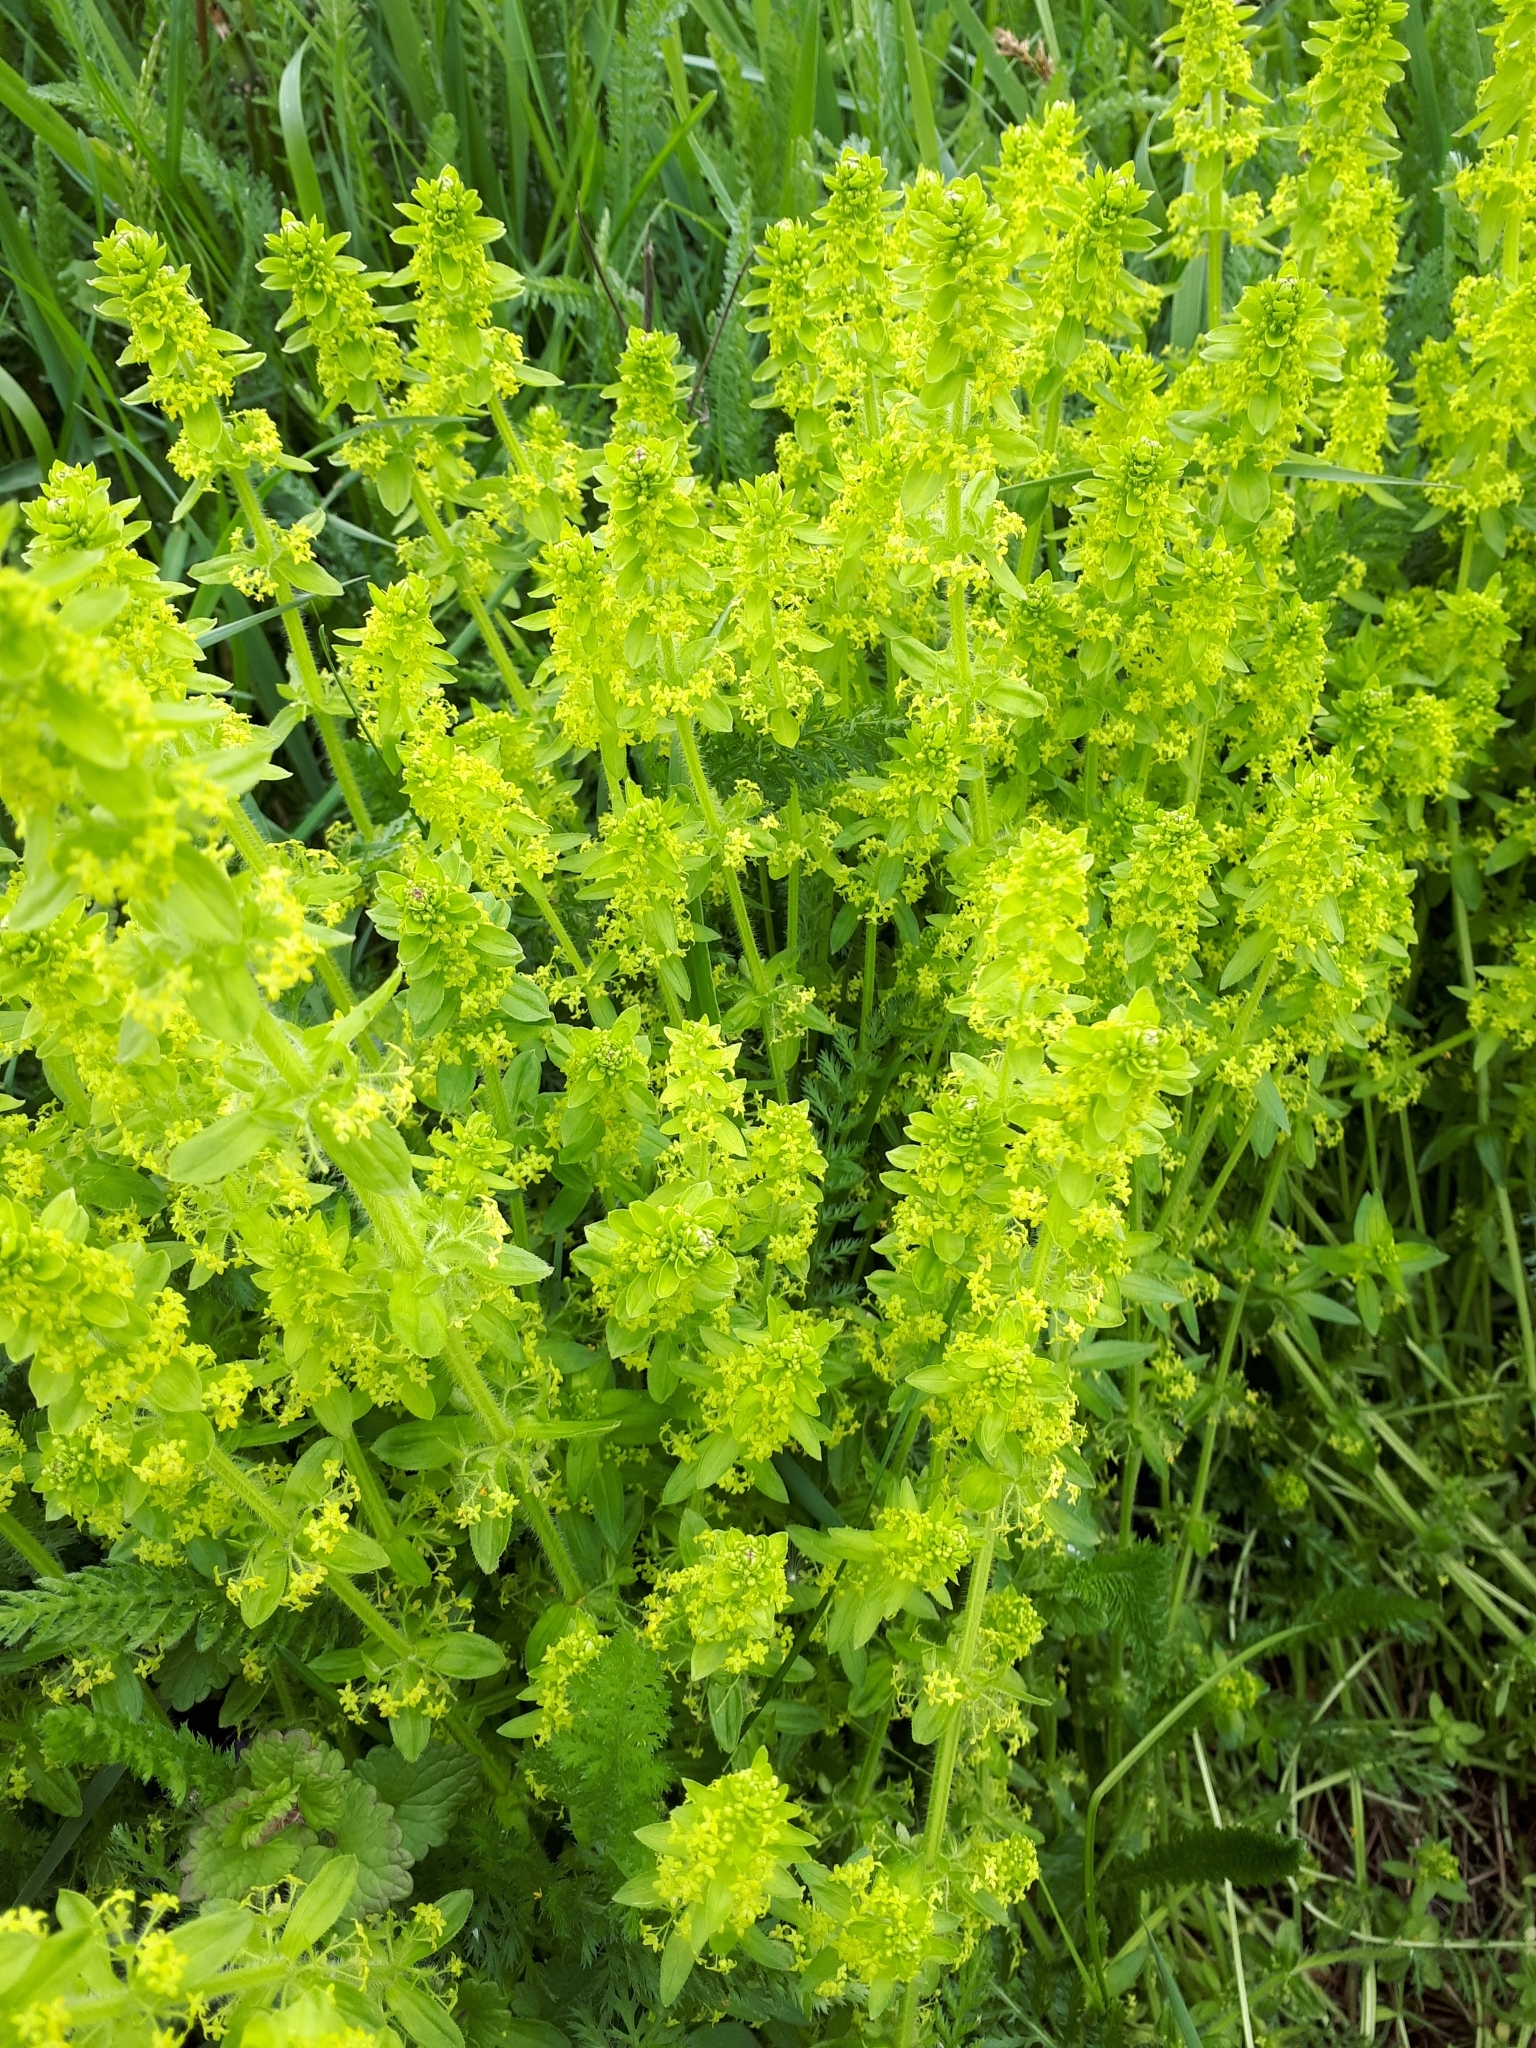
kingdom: Plantae
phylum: Tracheophyta
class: Magnoliopsida
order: Gentianales
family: Rubiaceae
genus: Cruciata
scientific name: Cruciata laevipes
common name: Crosswort
